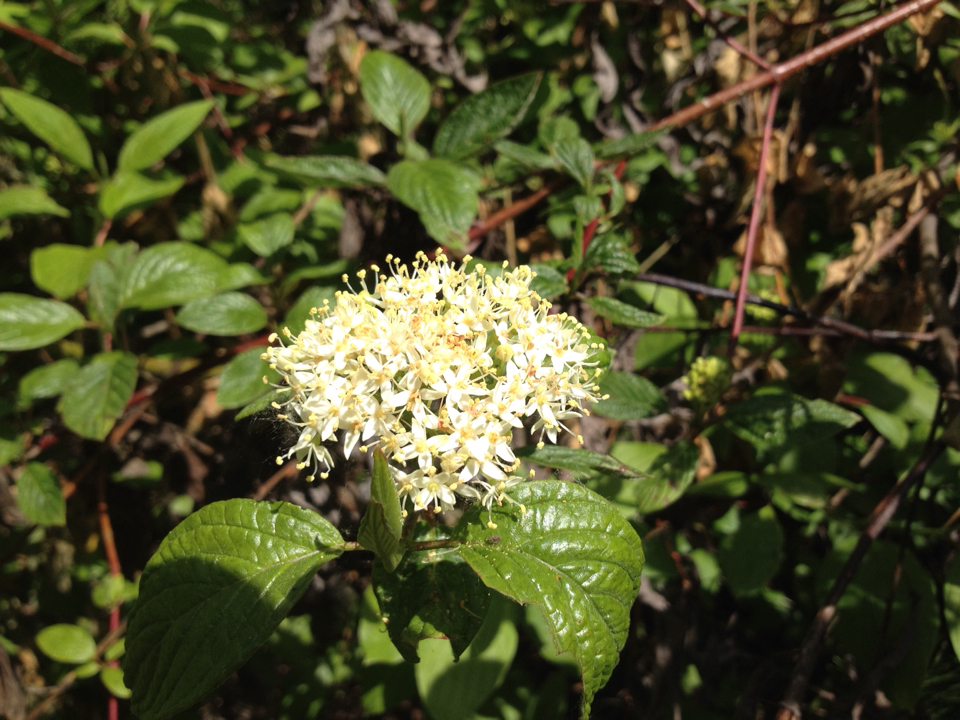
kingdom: Plantae
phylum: Tracheophyta
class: Magnoliopsida
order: Cornales
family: Cornaceae
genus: Cornus
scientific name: Cornus sericea
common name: Red-osier dogwood
